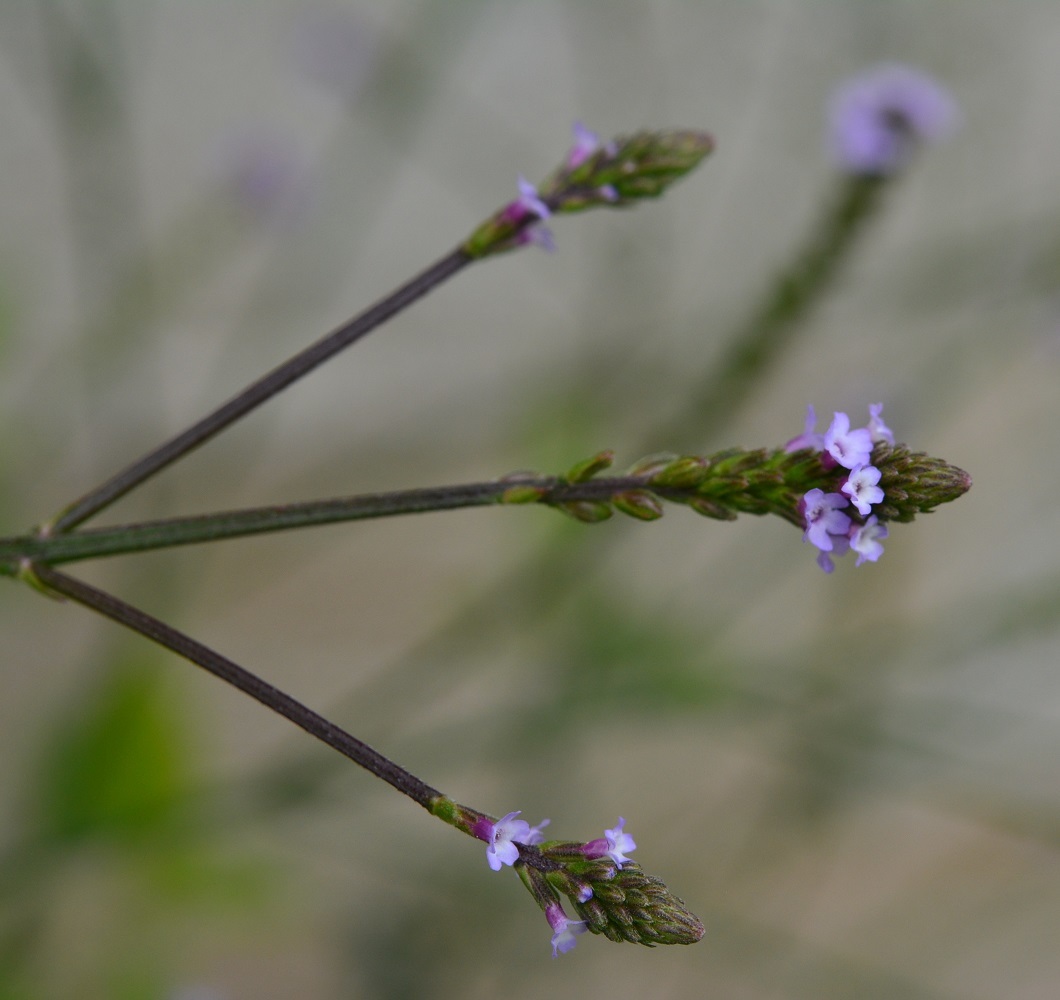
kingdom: Plantae
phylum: Tracheophyta
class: Magnoliopsida
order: Lamiales
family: Verbenaceae
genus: Verbena
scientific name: Verbena carolina
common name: Carolina vervain
